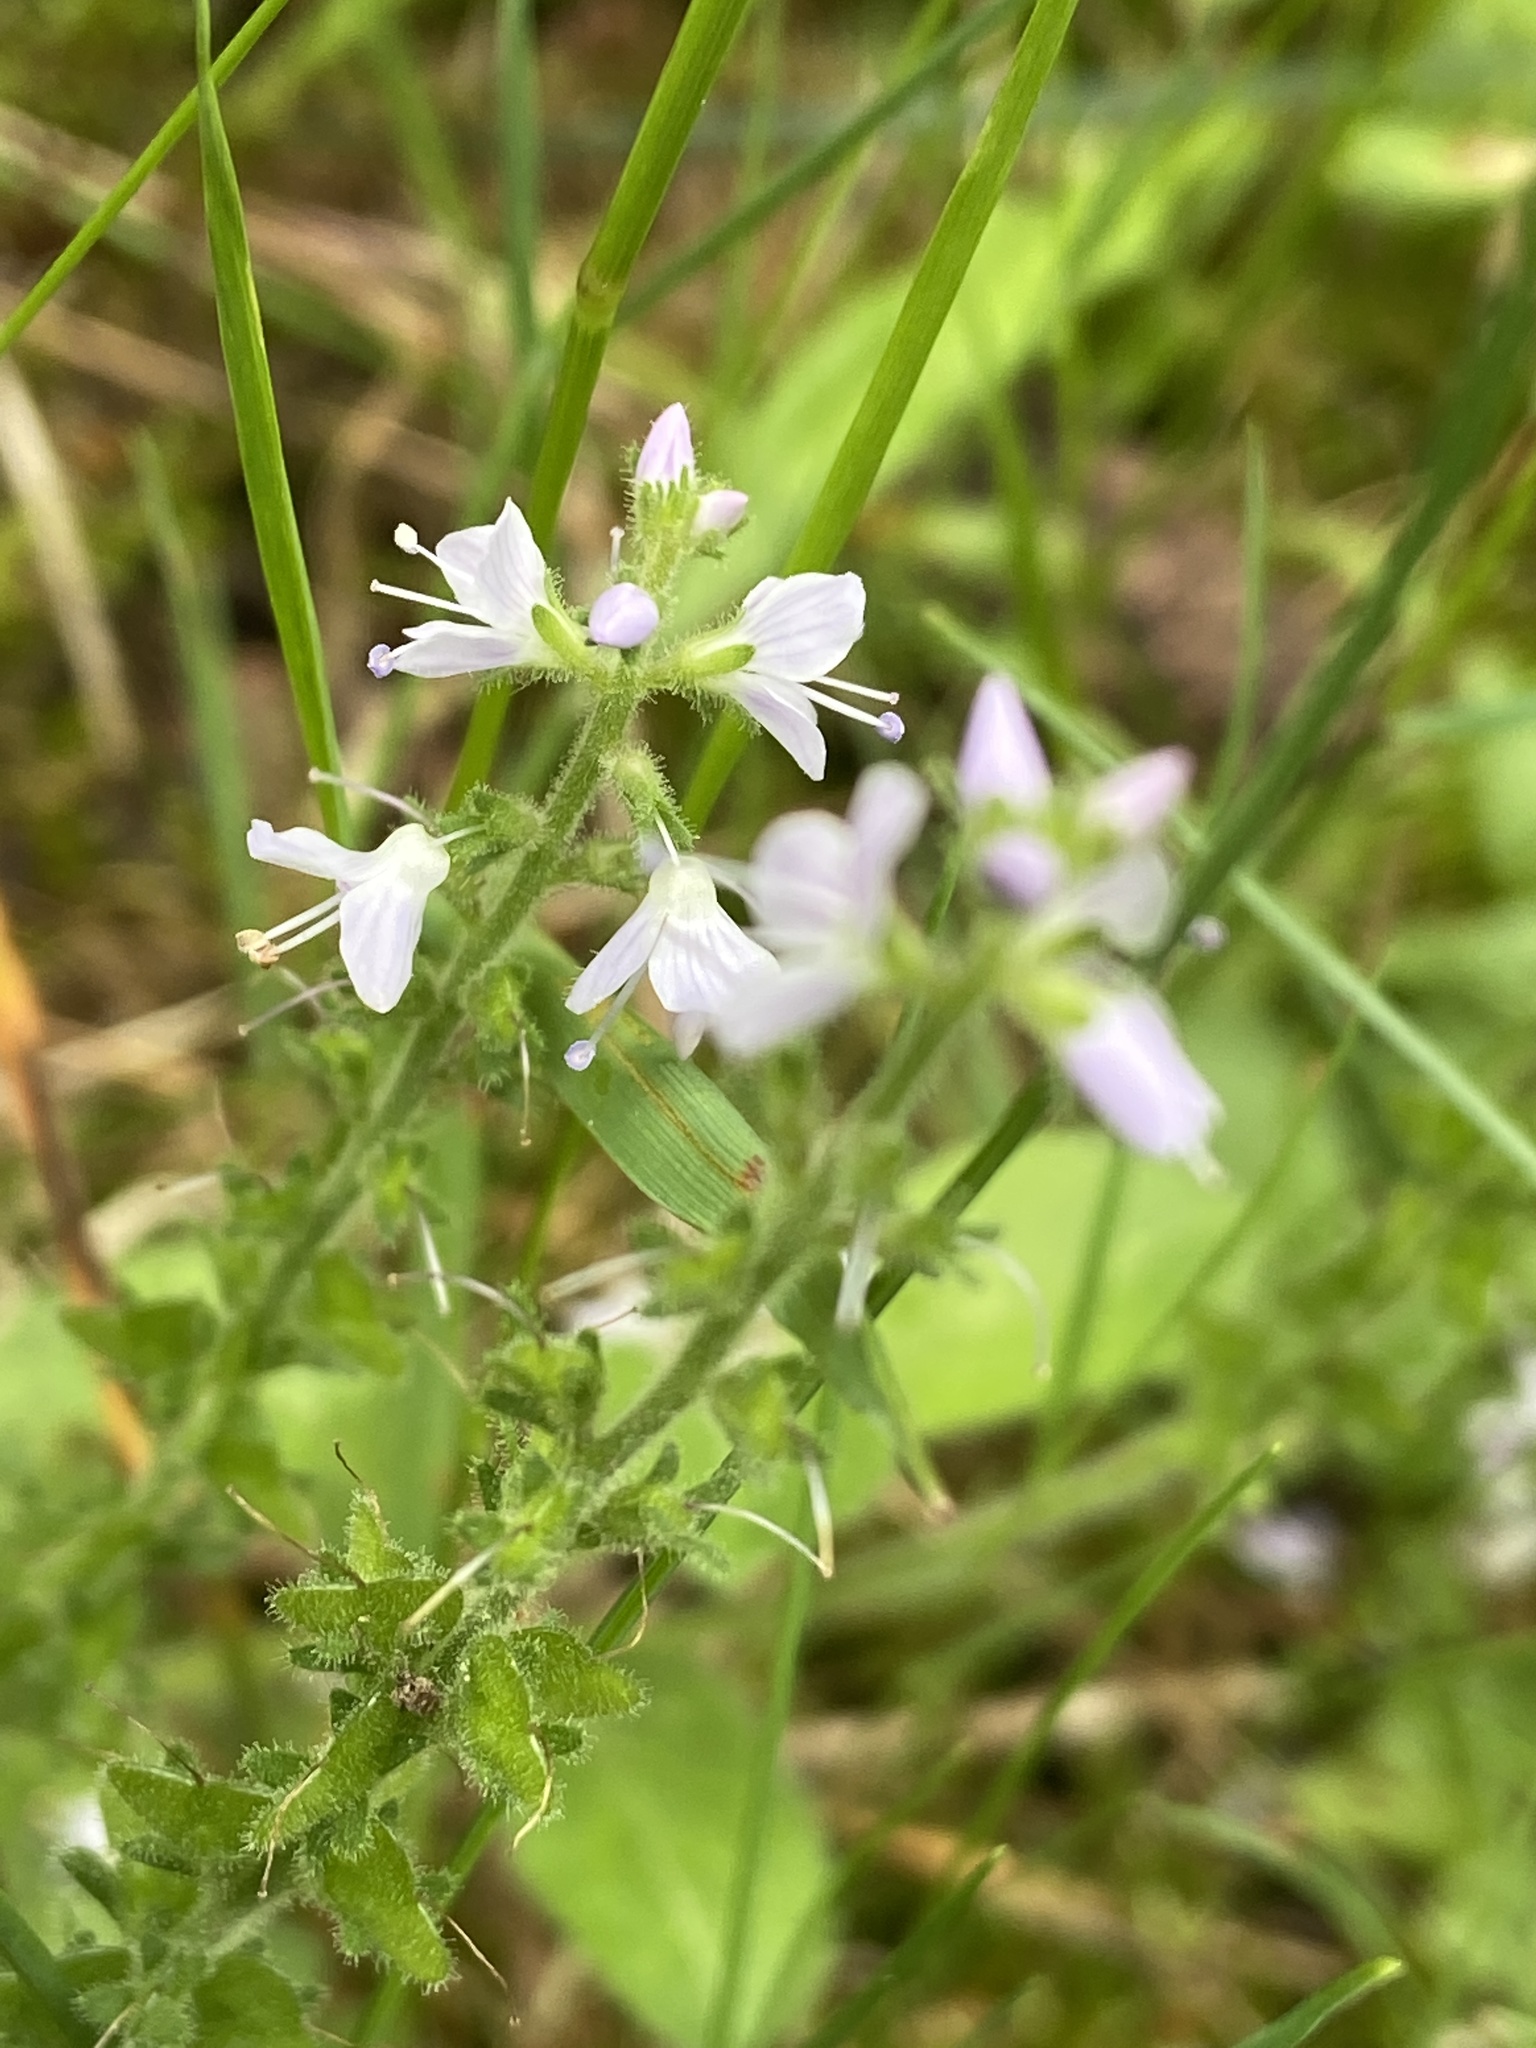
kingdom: Plantae
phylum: Tracheophyta
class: Magnoliopsida
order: Lamiales
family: Plantaginaceae
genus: Veronica
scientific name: Veronica officinalis
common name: Common speedwell
